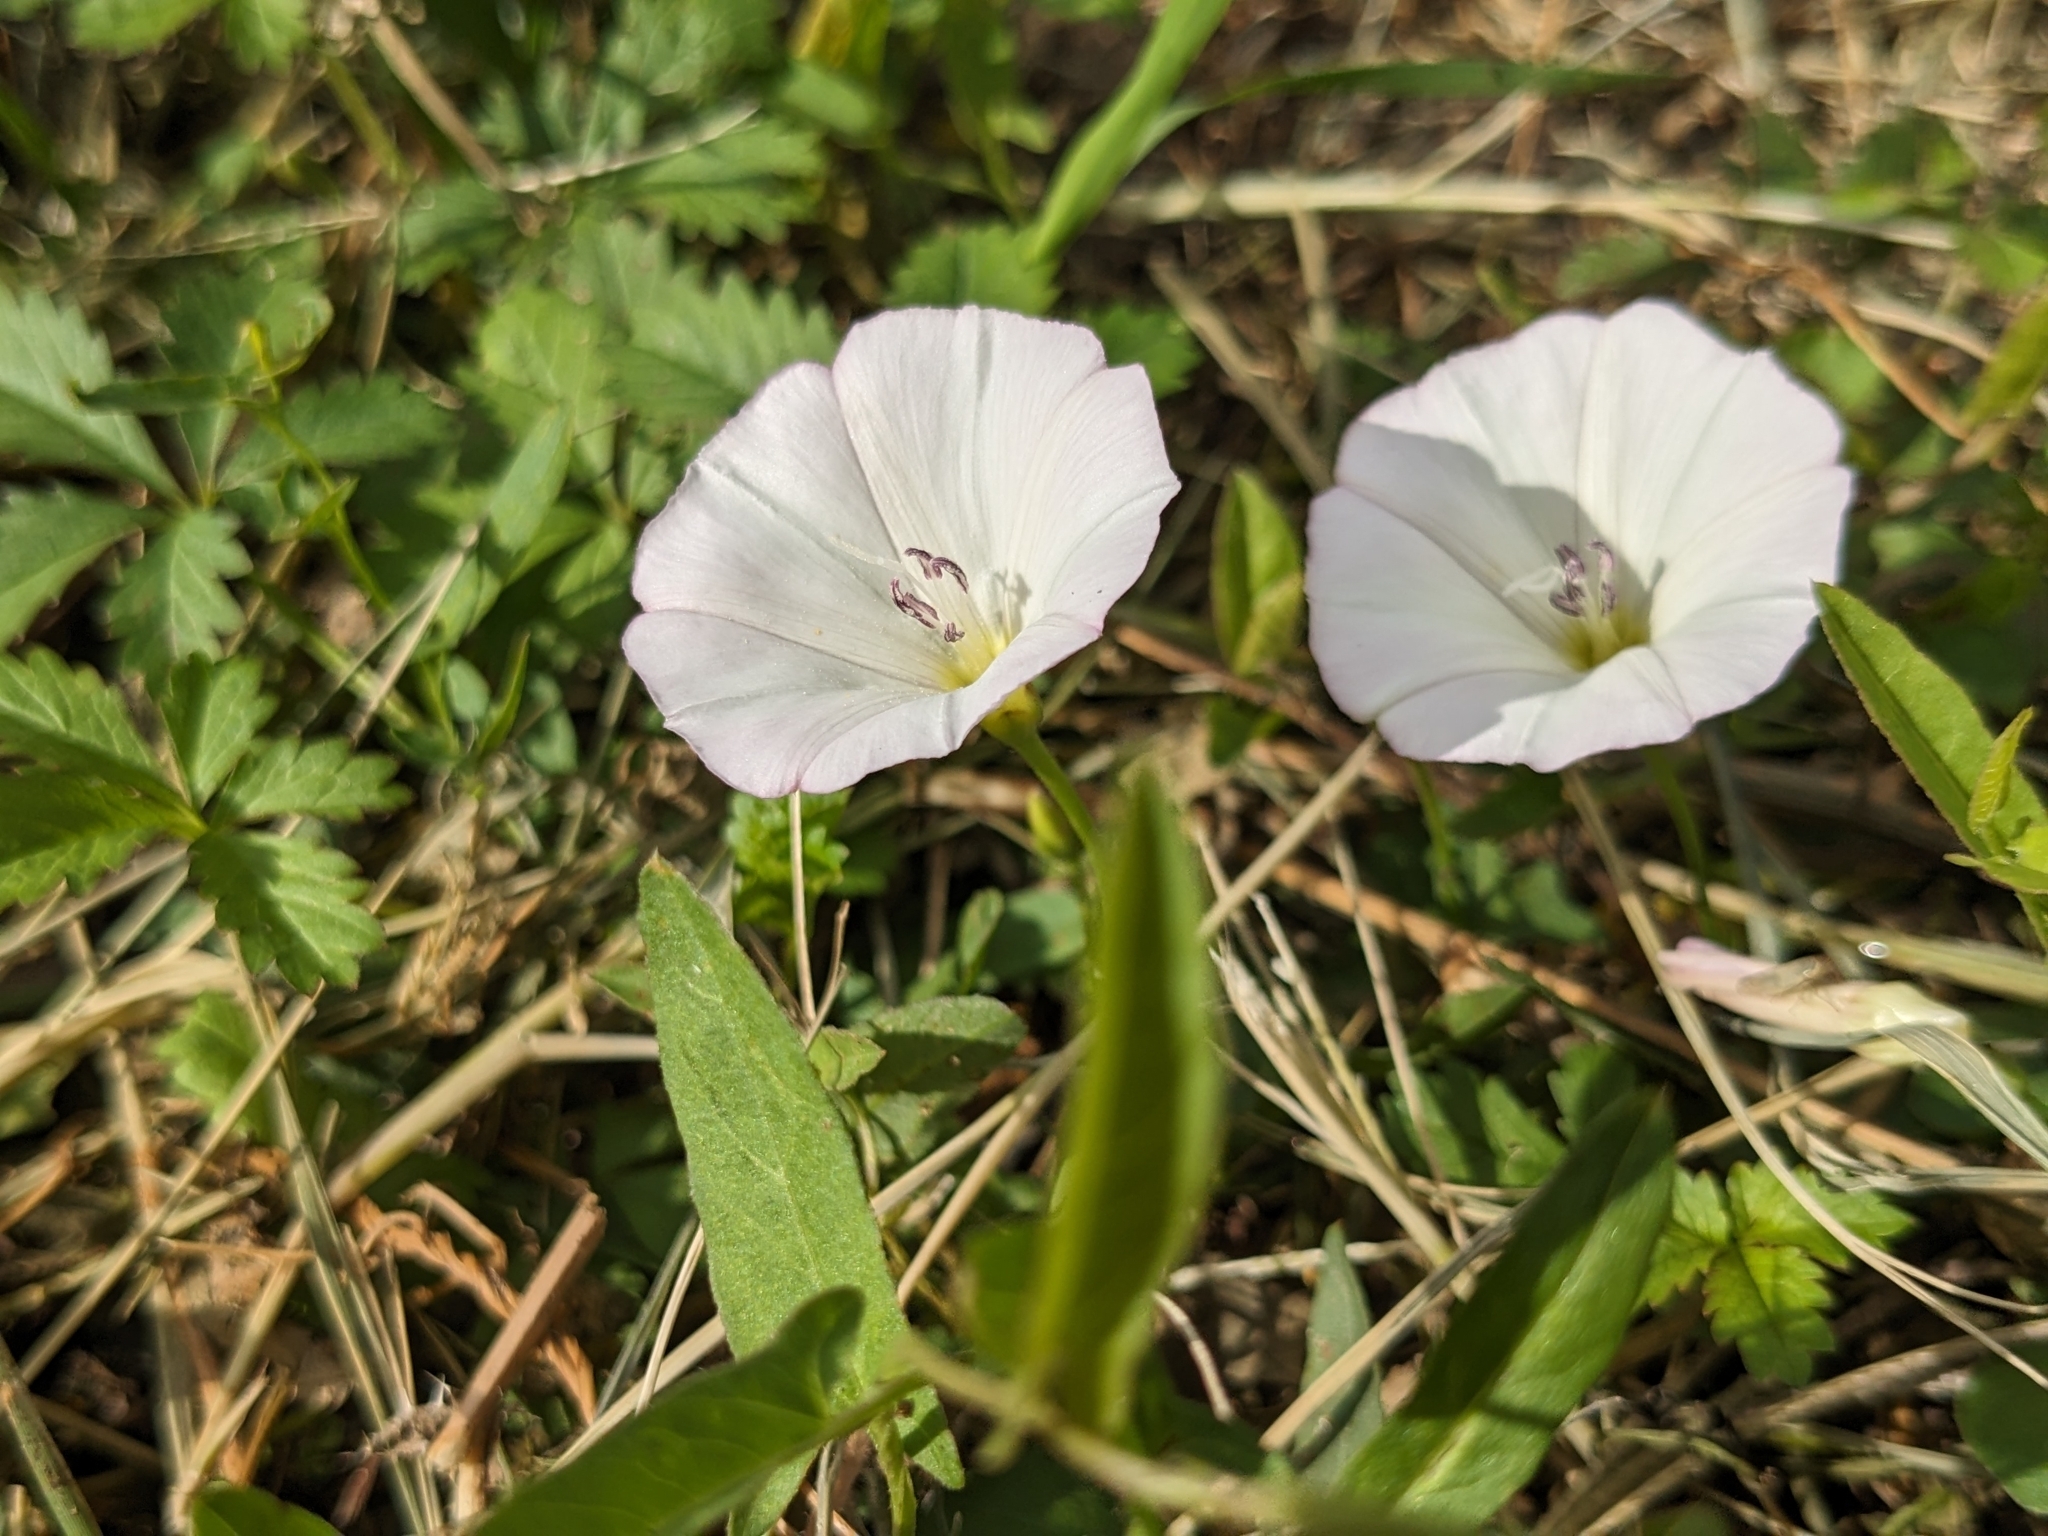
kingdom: Plantae
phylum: Tracheophyta
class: Magnoliopsida
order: Solanales
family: Convolvulaceae
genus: Convolvulus
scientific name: Convolvulus arvensis
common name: Field bindweed
